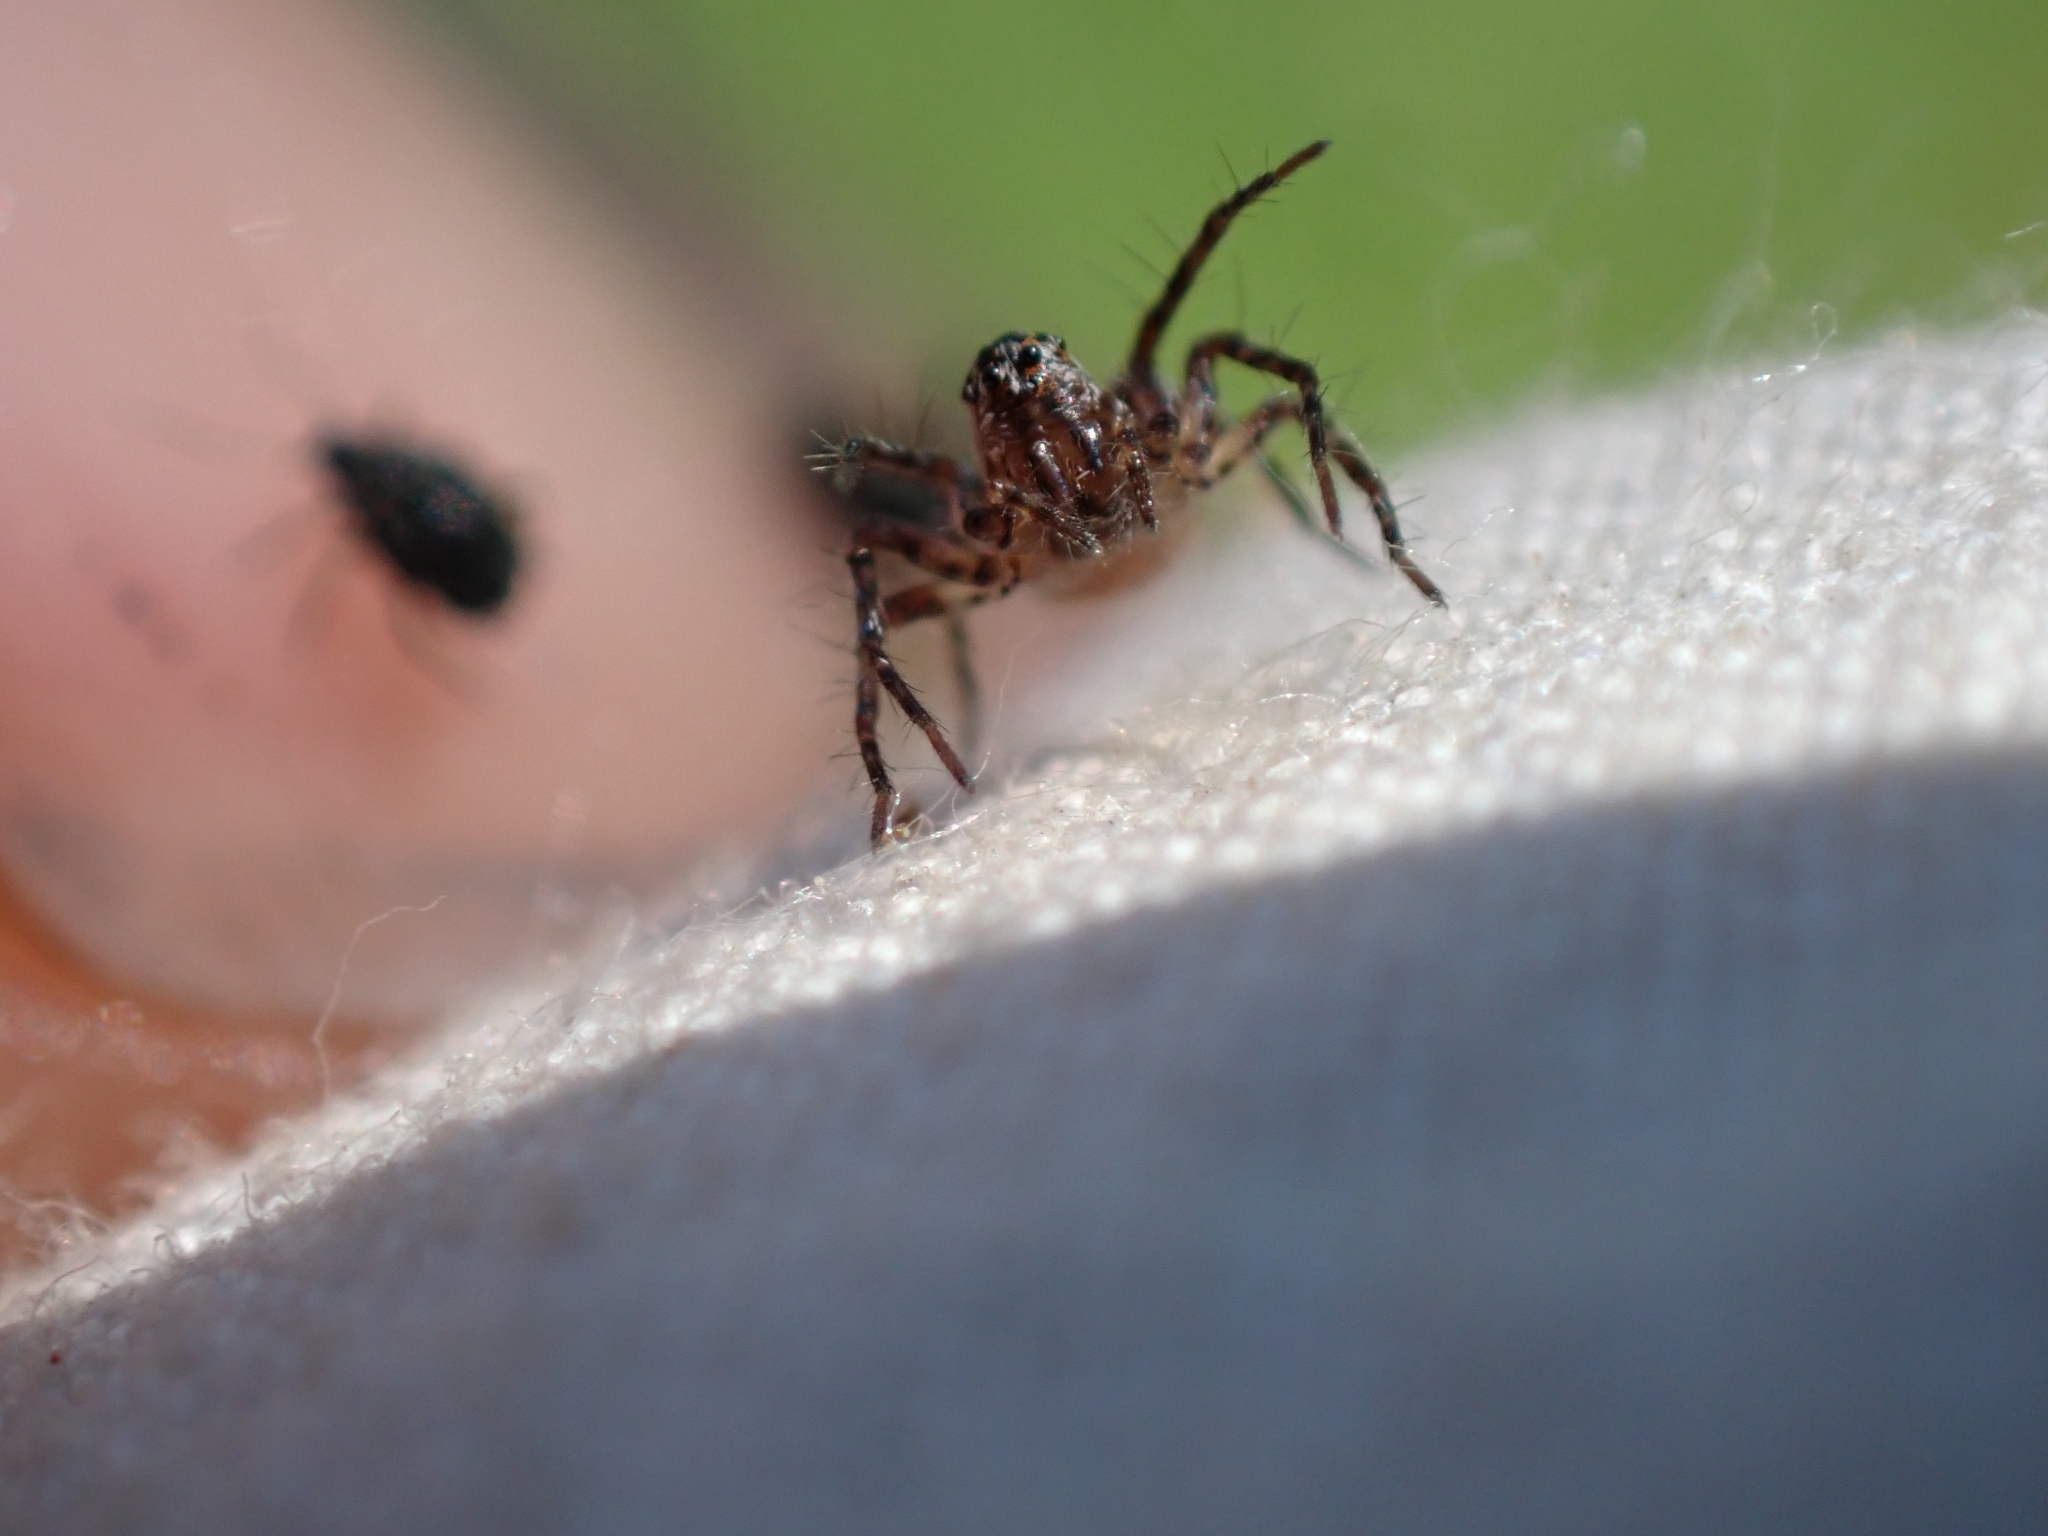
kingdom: Animalia
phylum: Arthropoda
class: Arachnida
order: Araneae
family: Oxyopidae
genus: Oxyopes
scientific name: Oxyopes scalaris
